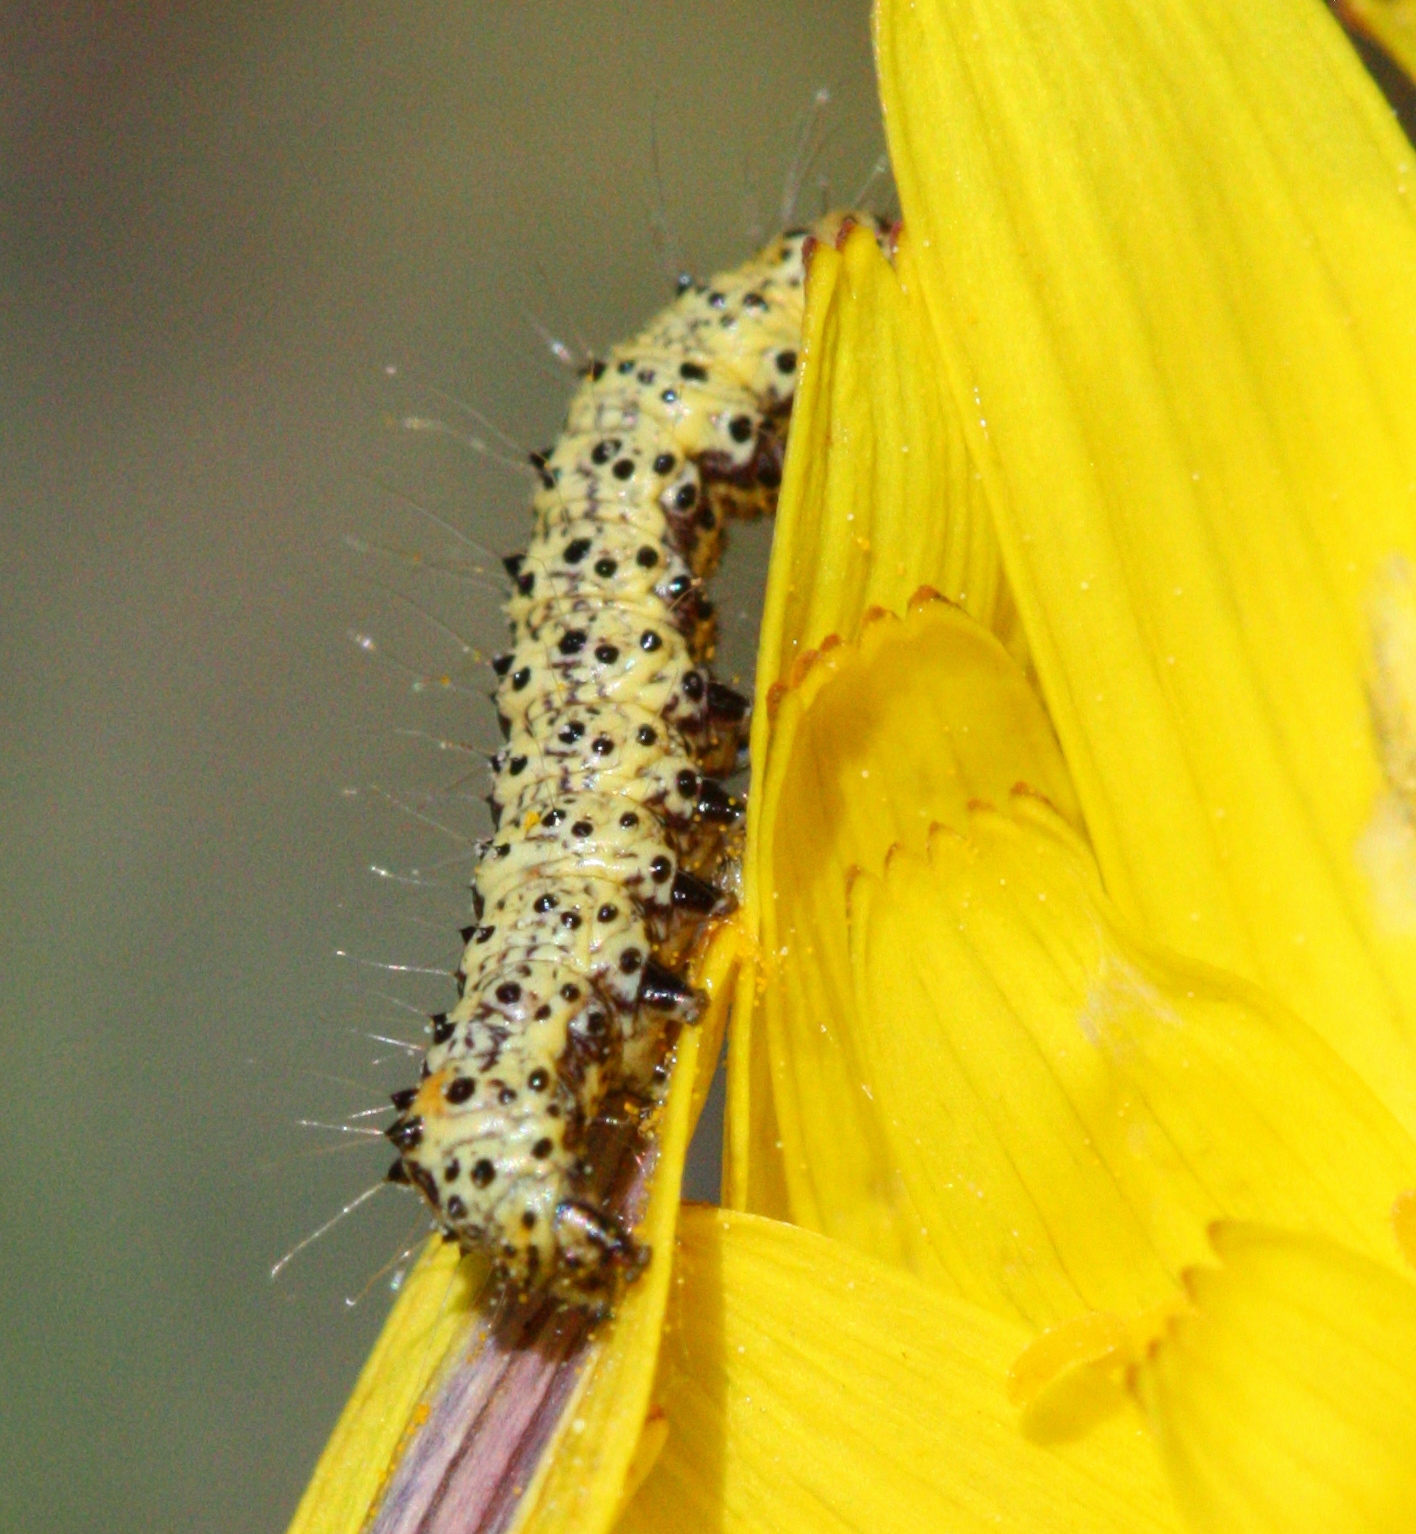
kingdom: Animalia
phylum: Arthropoda
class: Insecta
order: Lepidoptera
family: Noctuidae
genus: Alypia
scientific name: Alypia maccullochii
